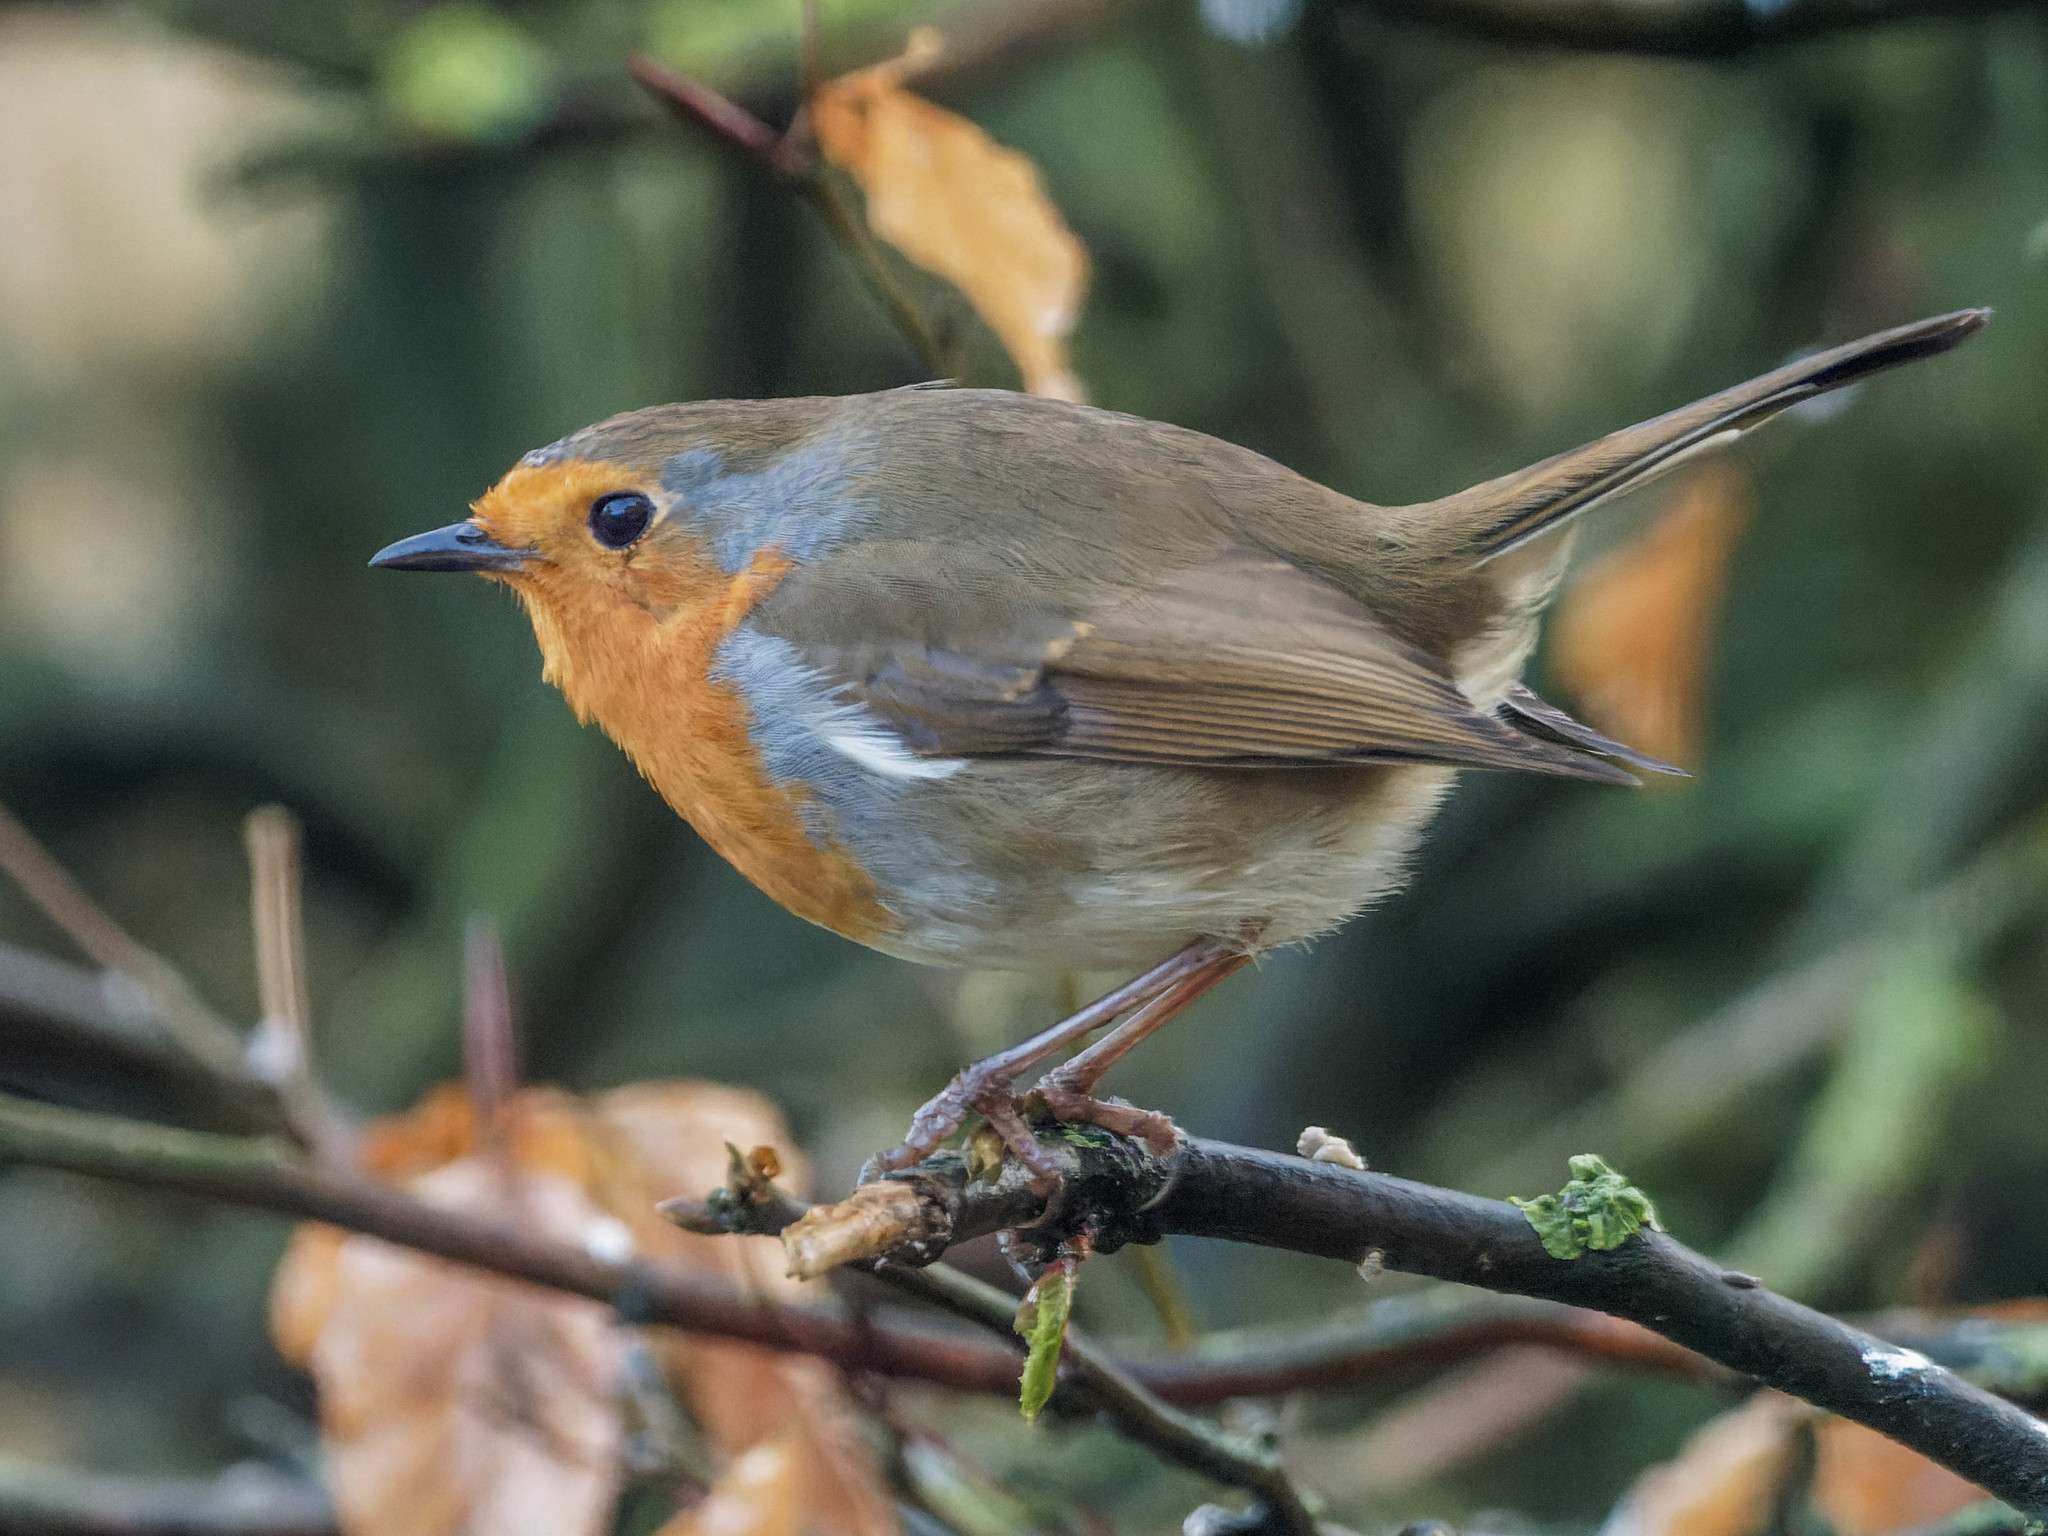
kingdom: Animalia
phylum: Chordata
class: Aves
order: Passeriformes
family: Muscicapidae
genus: Erithacus
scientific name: Erithacus rubecula
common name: European robin
